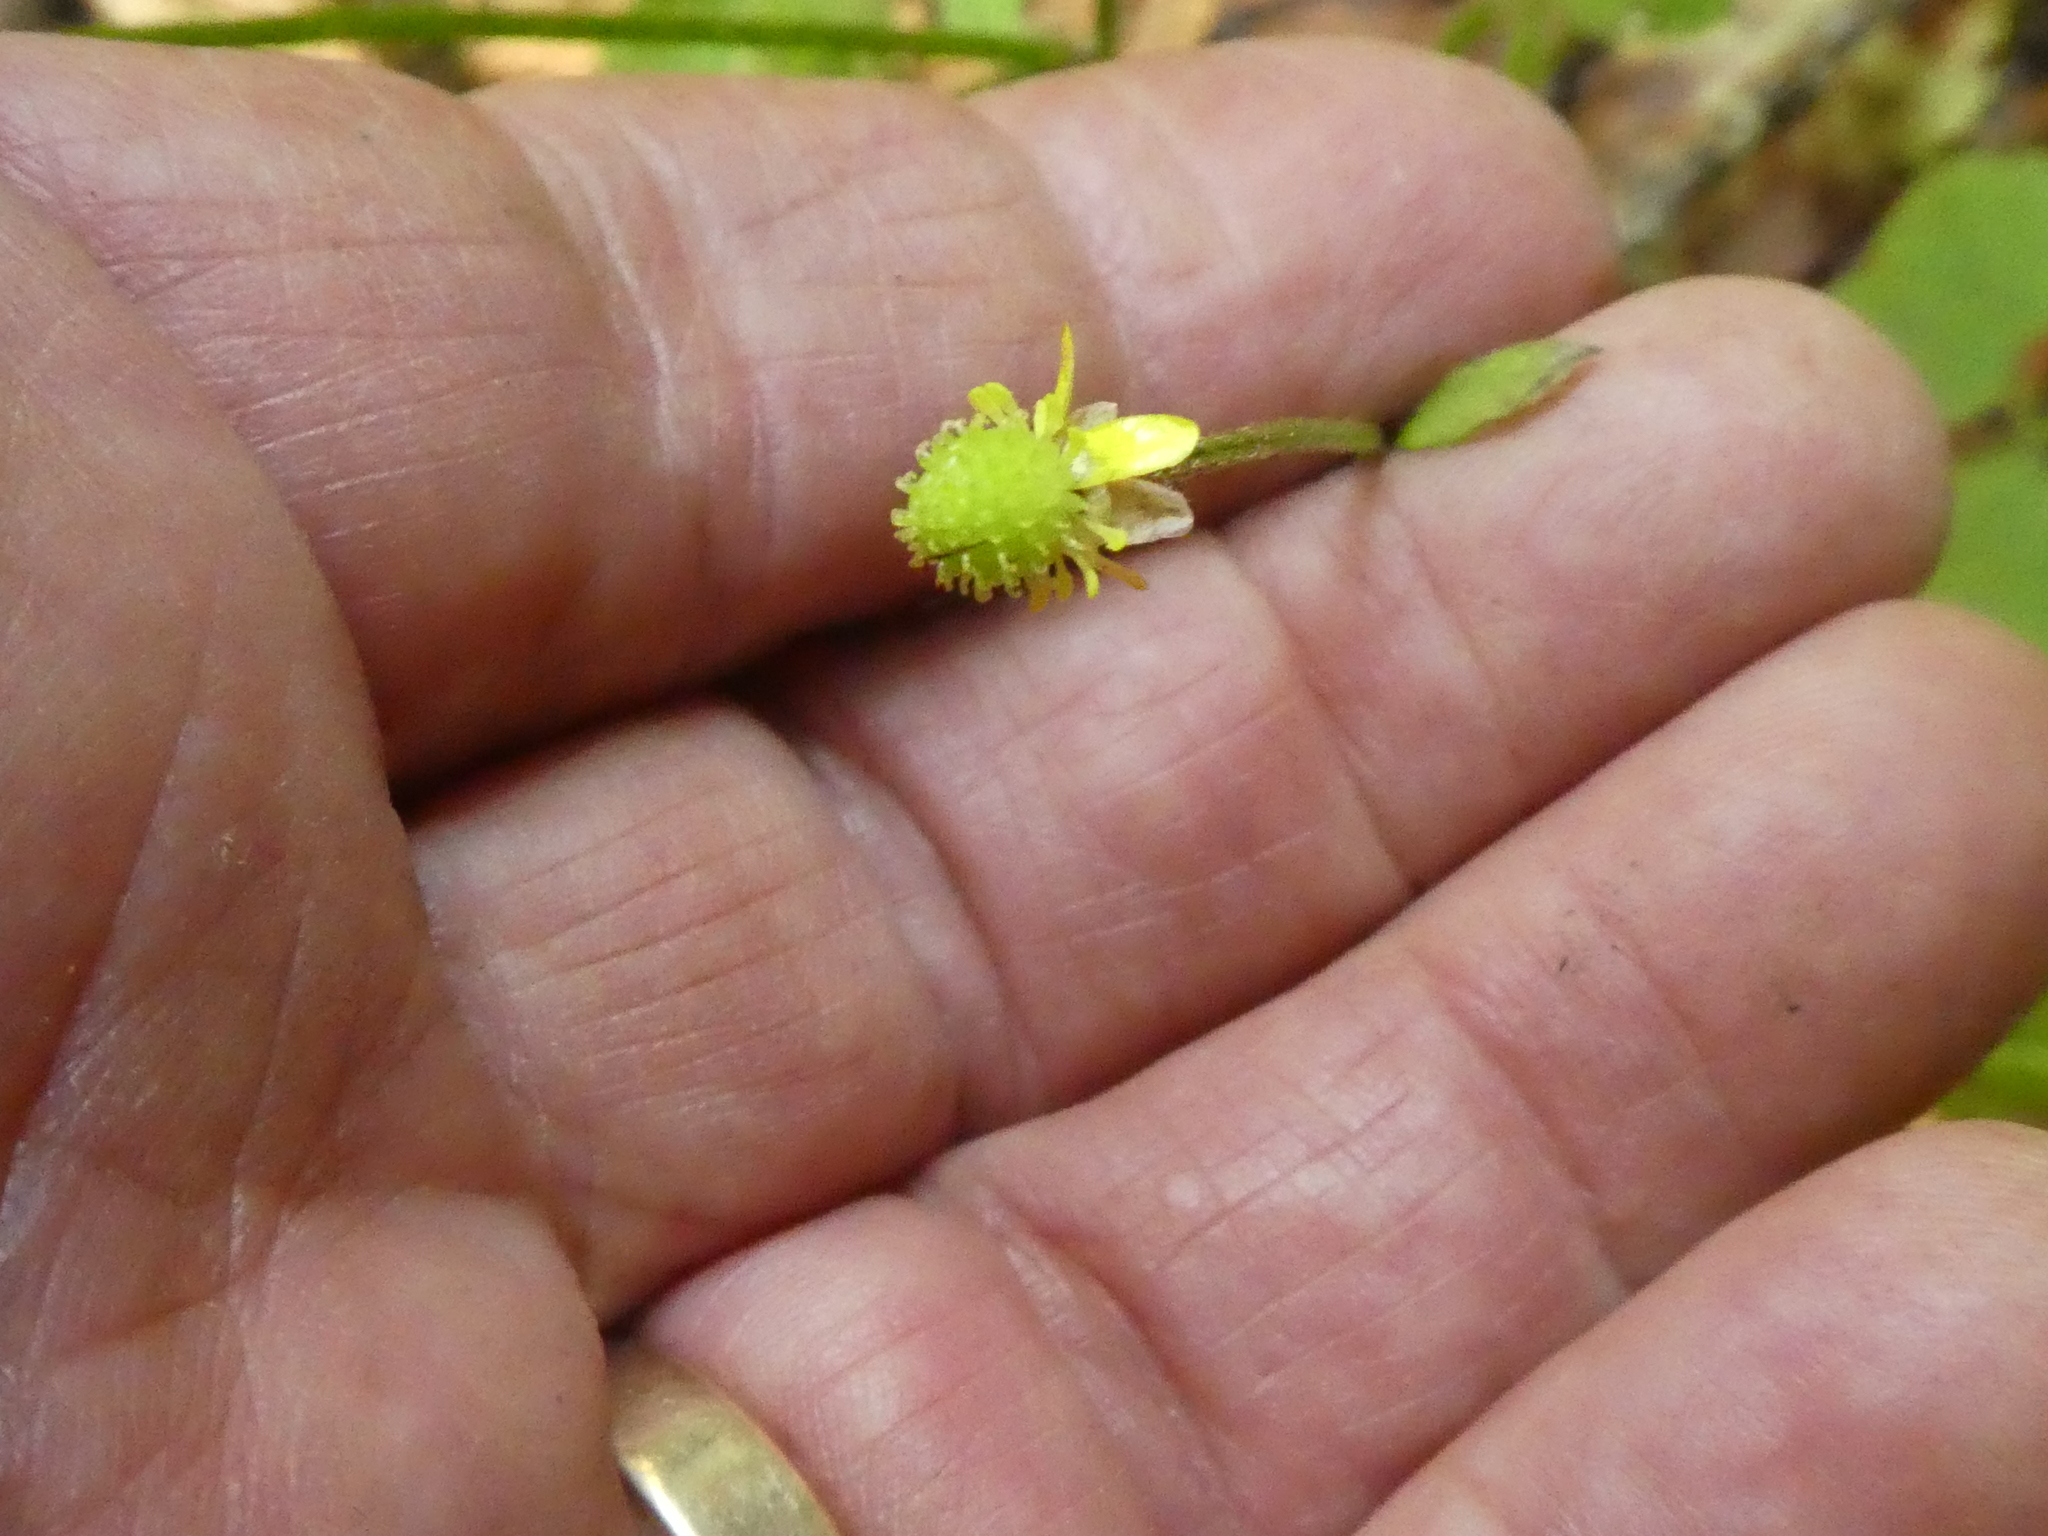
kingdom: Plantae
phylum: Tracheophyta
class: Magnoliopsida
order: Ranunculales
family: Ranunculaceae
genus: Ranunculus
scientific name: Ranunculus reflexus
